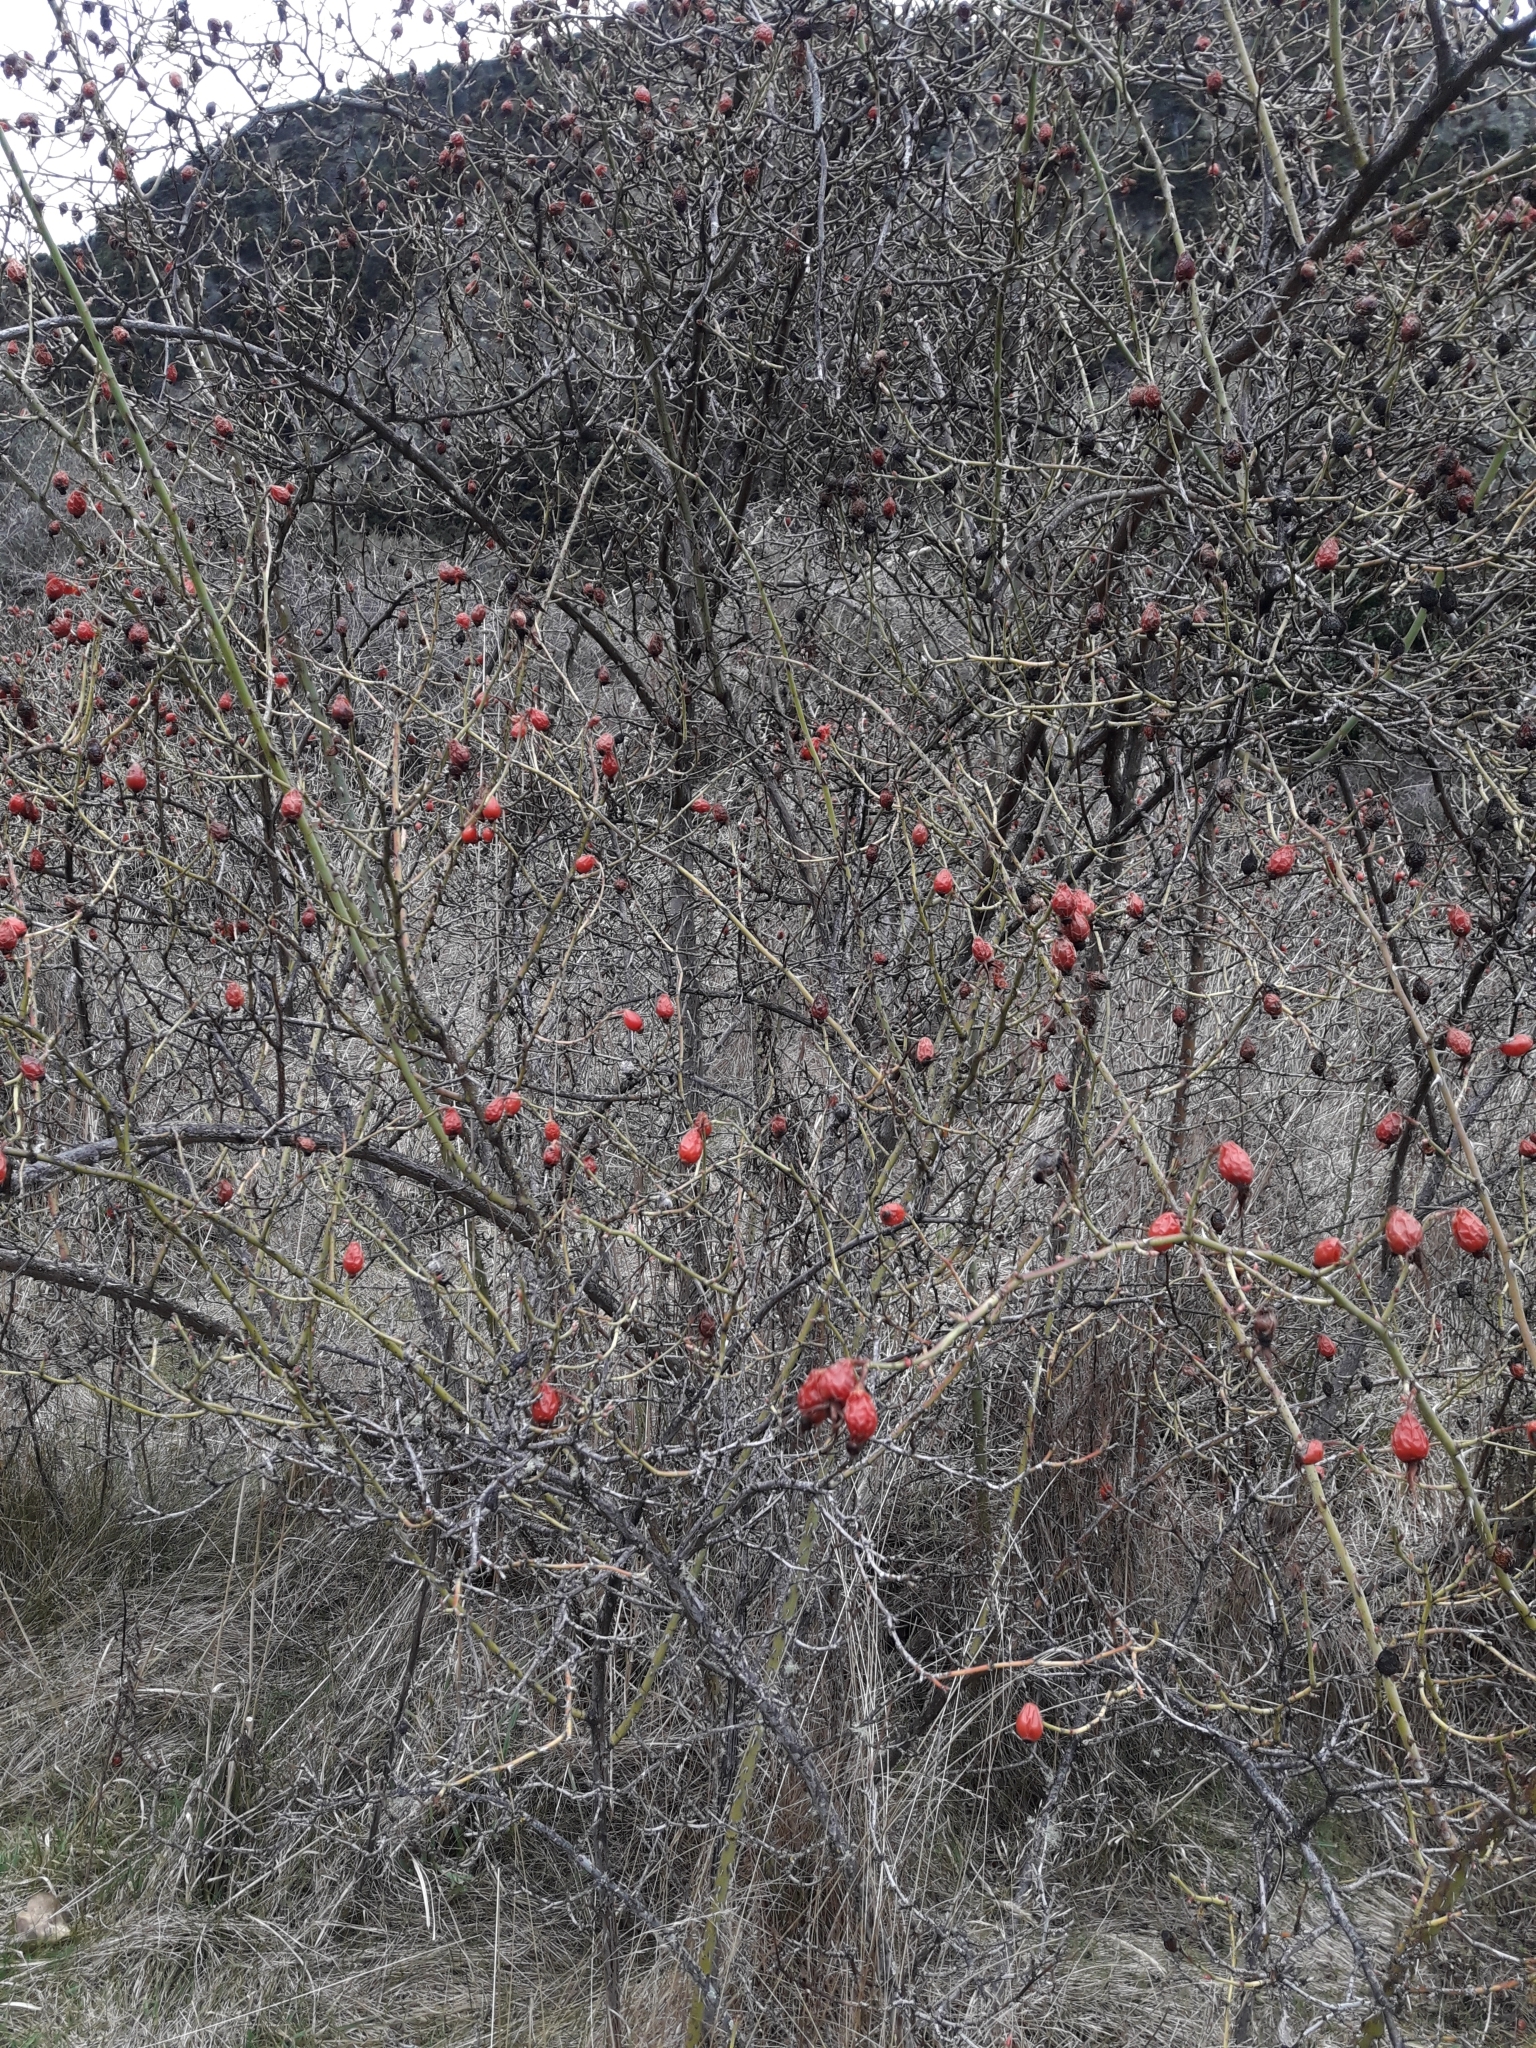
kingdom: Plantae
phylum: Tracheophyta
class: Magnoliopsida
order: Rosales
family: Rosaceae
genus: Rosa
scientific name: Rosa rubiginosa
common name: Sweet-briar
